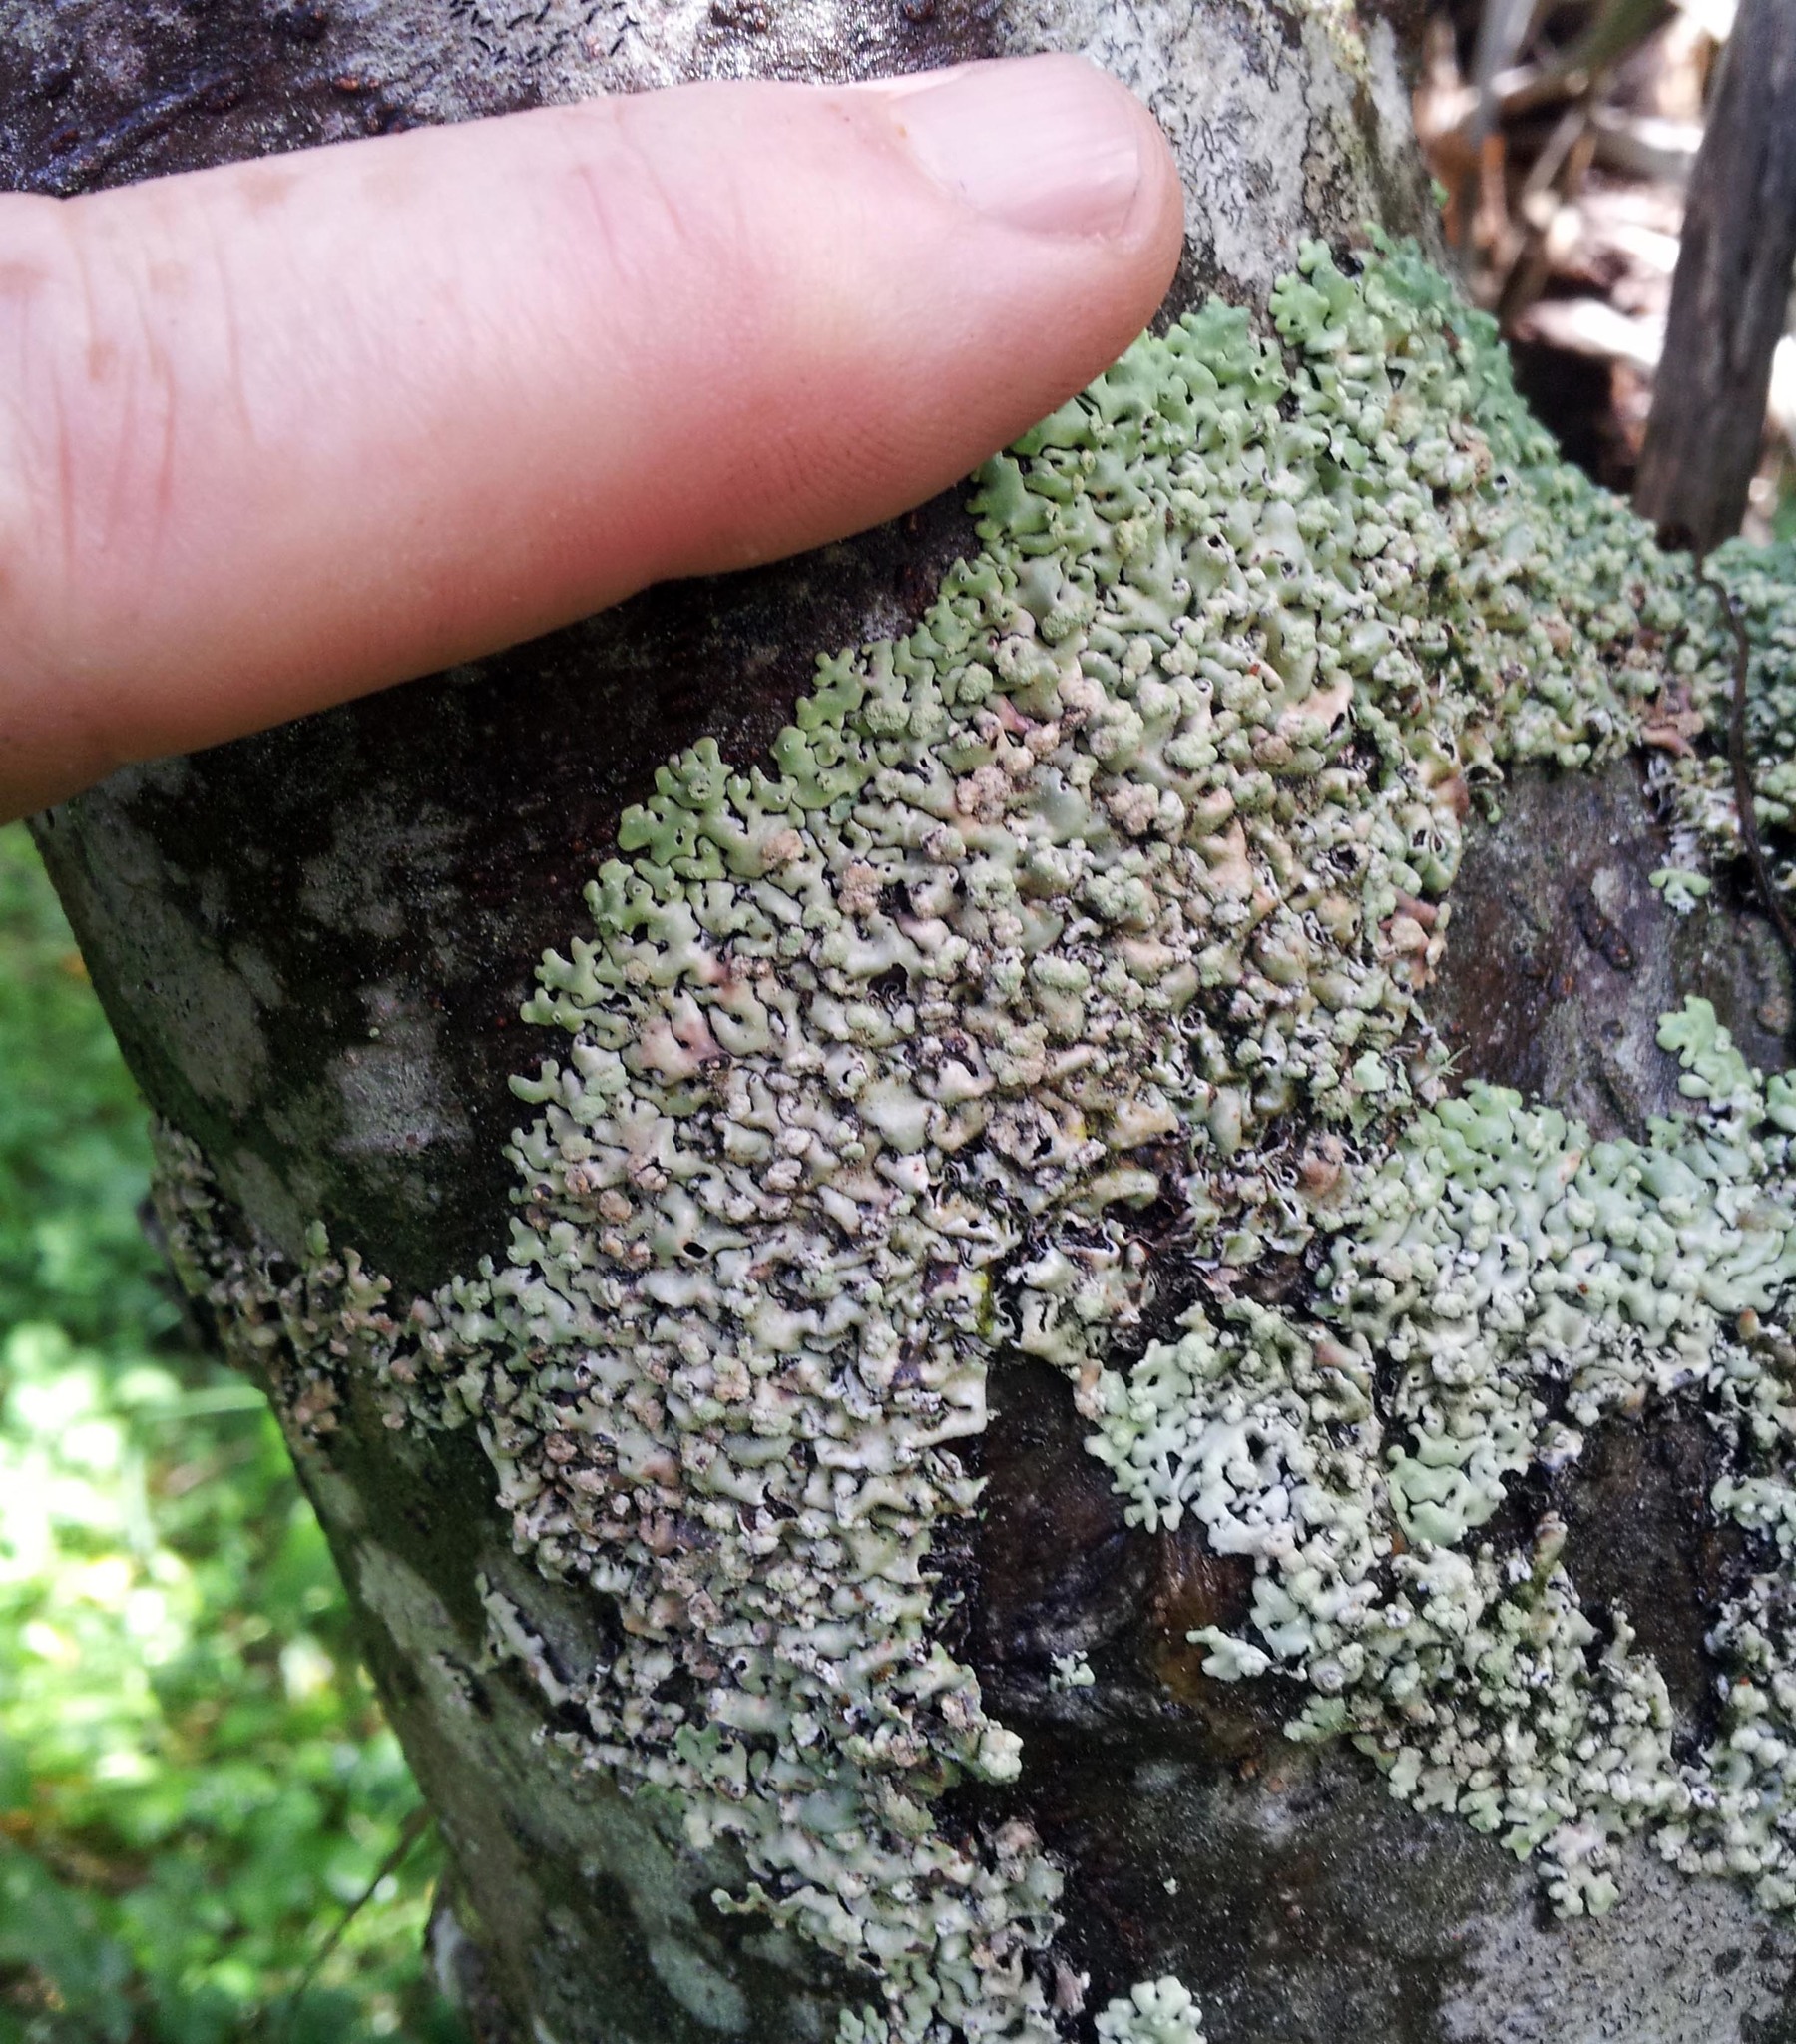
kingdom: Fungi
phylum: Ascomycota
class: Lecanoromycetes
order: Lecanorales
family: Parmeliaceae
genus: Menegazzia
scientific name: Menegazzia neozelandica
